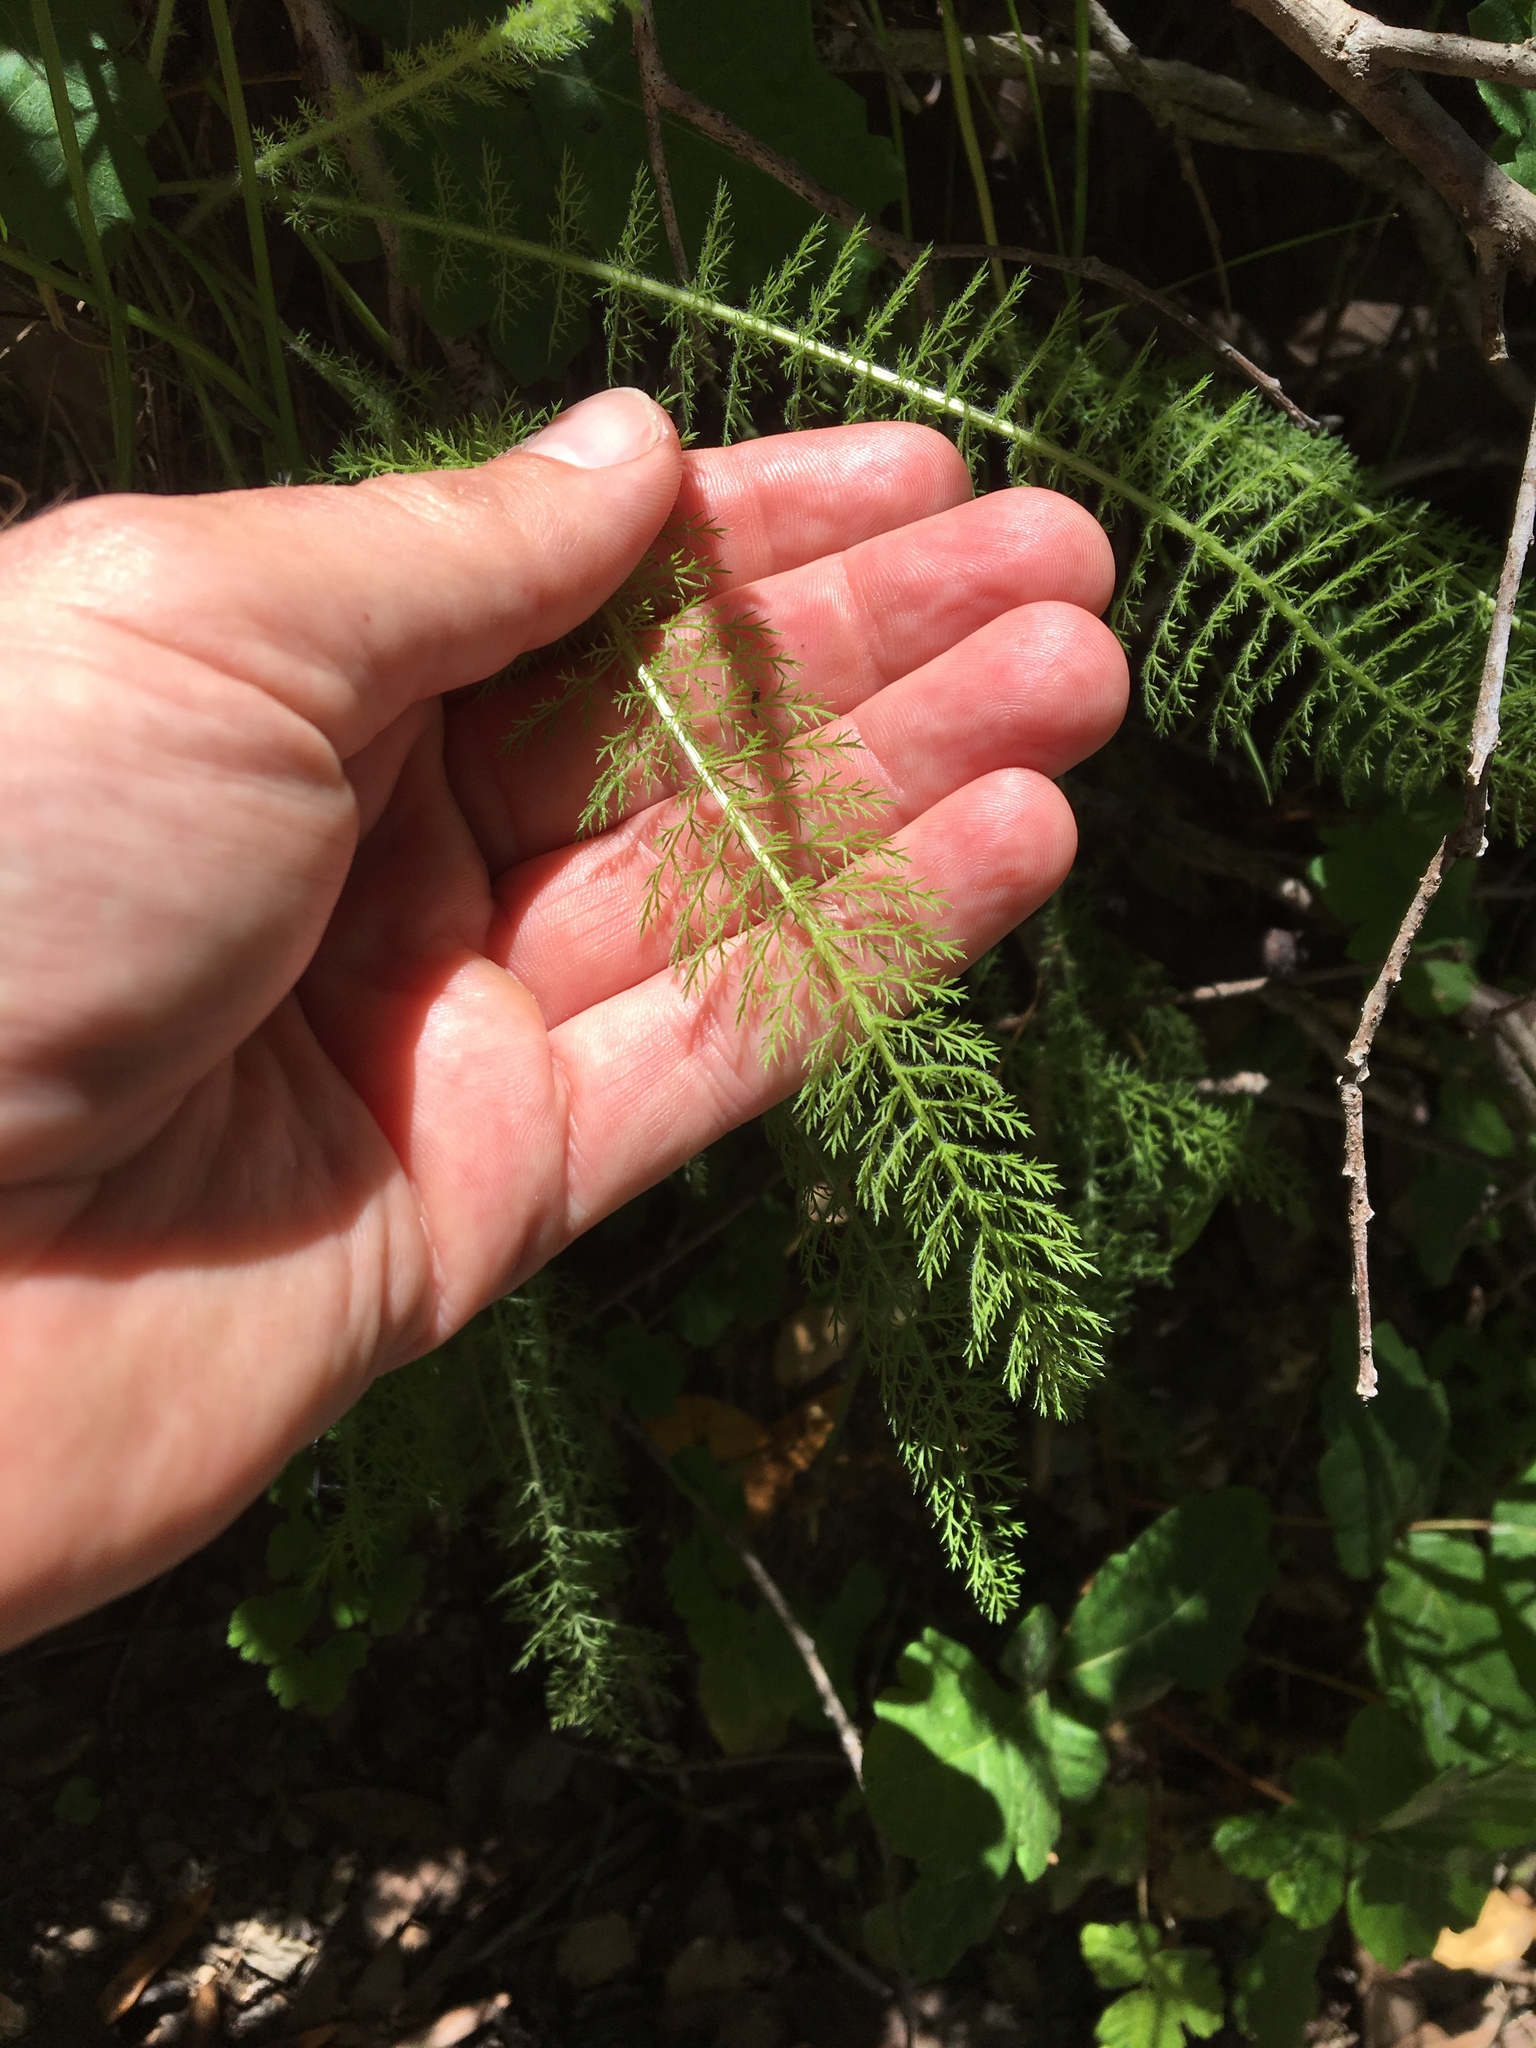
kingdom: Plantae
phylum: Tracheophyta
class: Magnoliopsida
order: Asterales
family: Asteraceae
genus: Achillea
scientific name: Achillea millefolium
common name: Yarrow
